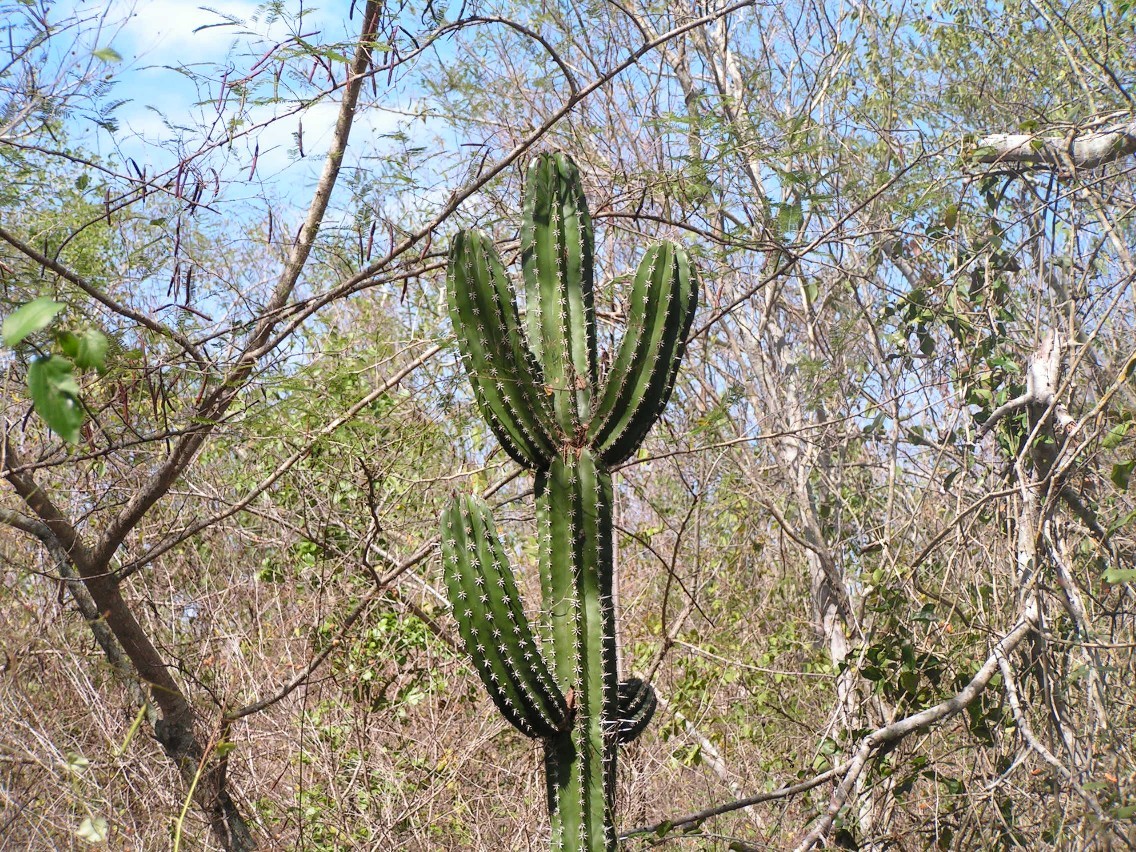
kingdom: Plantae
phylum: Tracheophyta
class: Magnoliopsida
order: Caryophyllales
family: Cactaceae
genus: Pachycereus
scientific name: Pachycereus pecten-aboriginum
